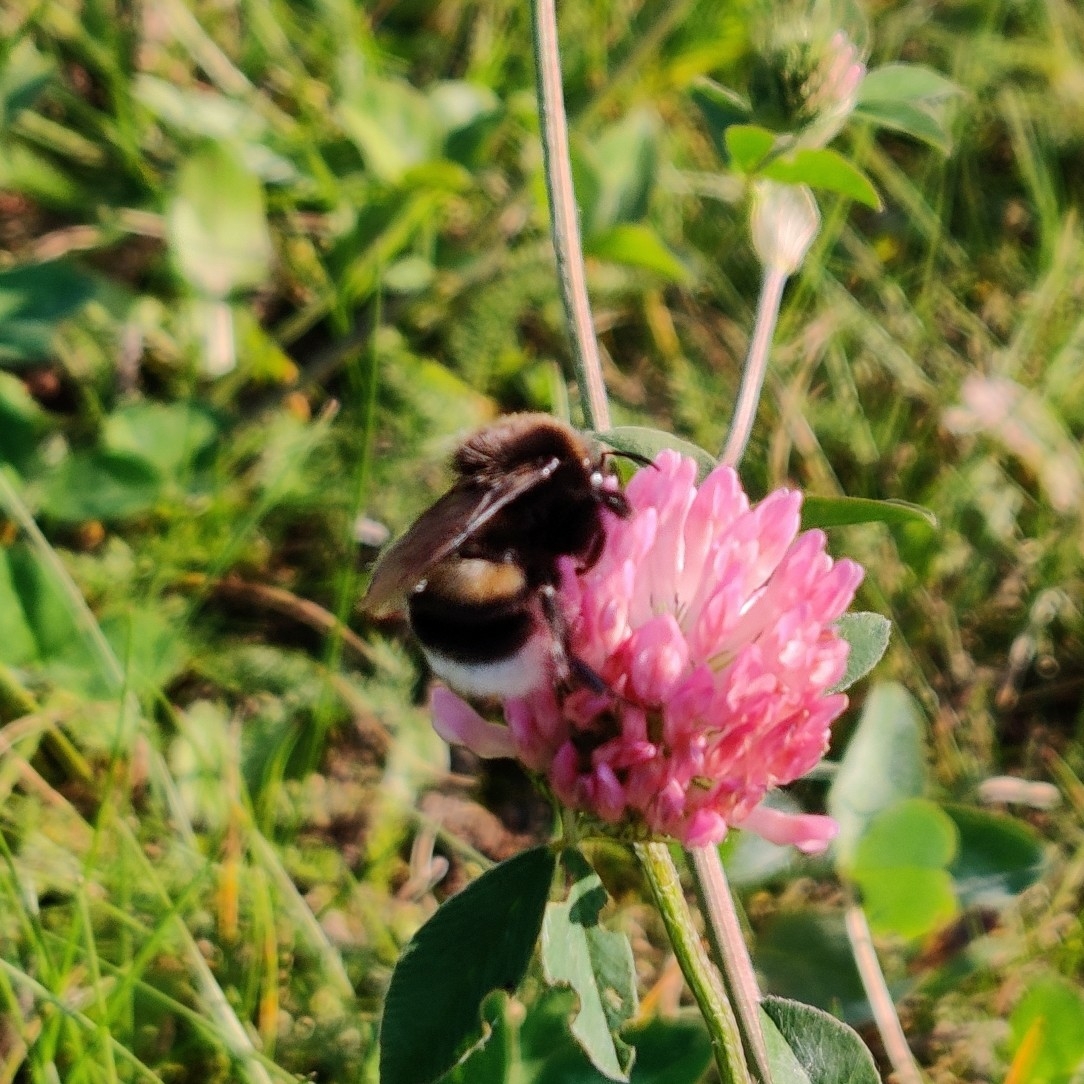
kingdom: Animalia
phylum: Arthropoda
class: Insecta
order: Hymenoptera
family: Apidae
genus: Bombus
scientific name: Bombus
